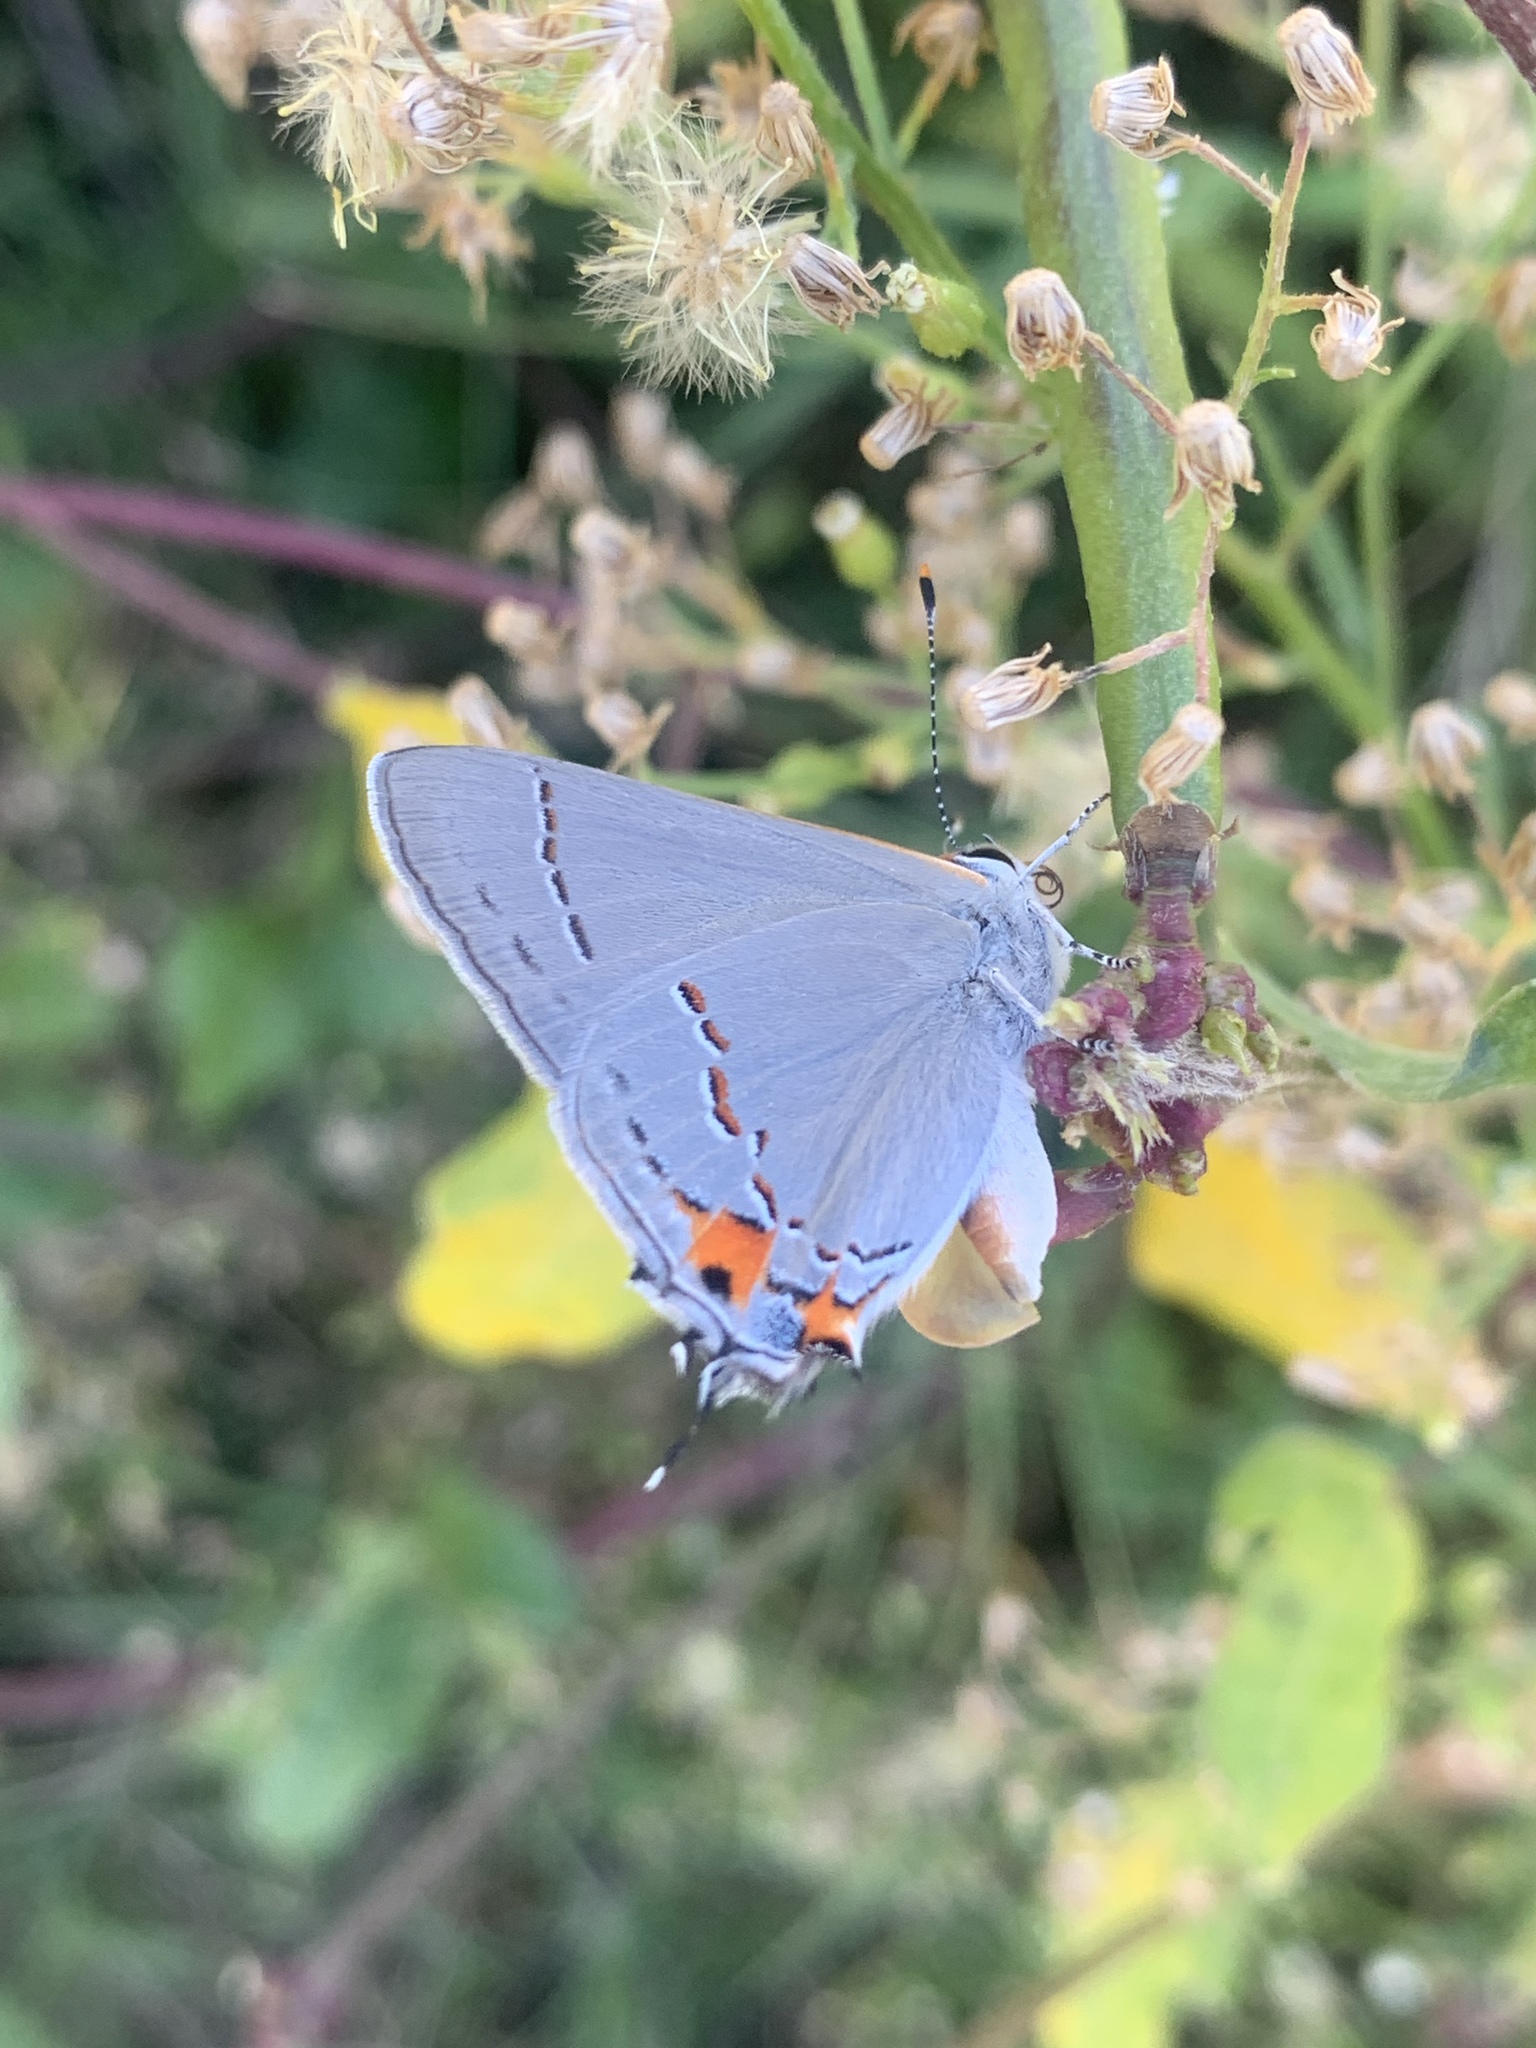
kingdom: Animalia
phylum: Arthropoda
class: Insecta
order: Lepidoptera
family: Lycaenidae
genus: Strymon
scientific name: Strymon melinus
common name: Gray hairstreak
